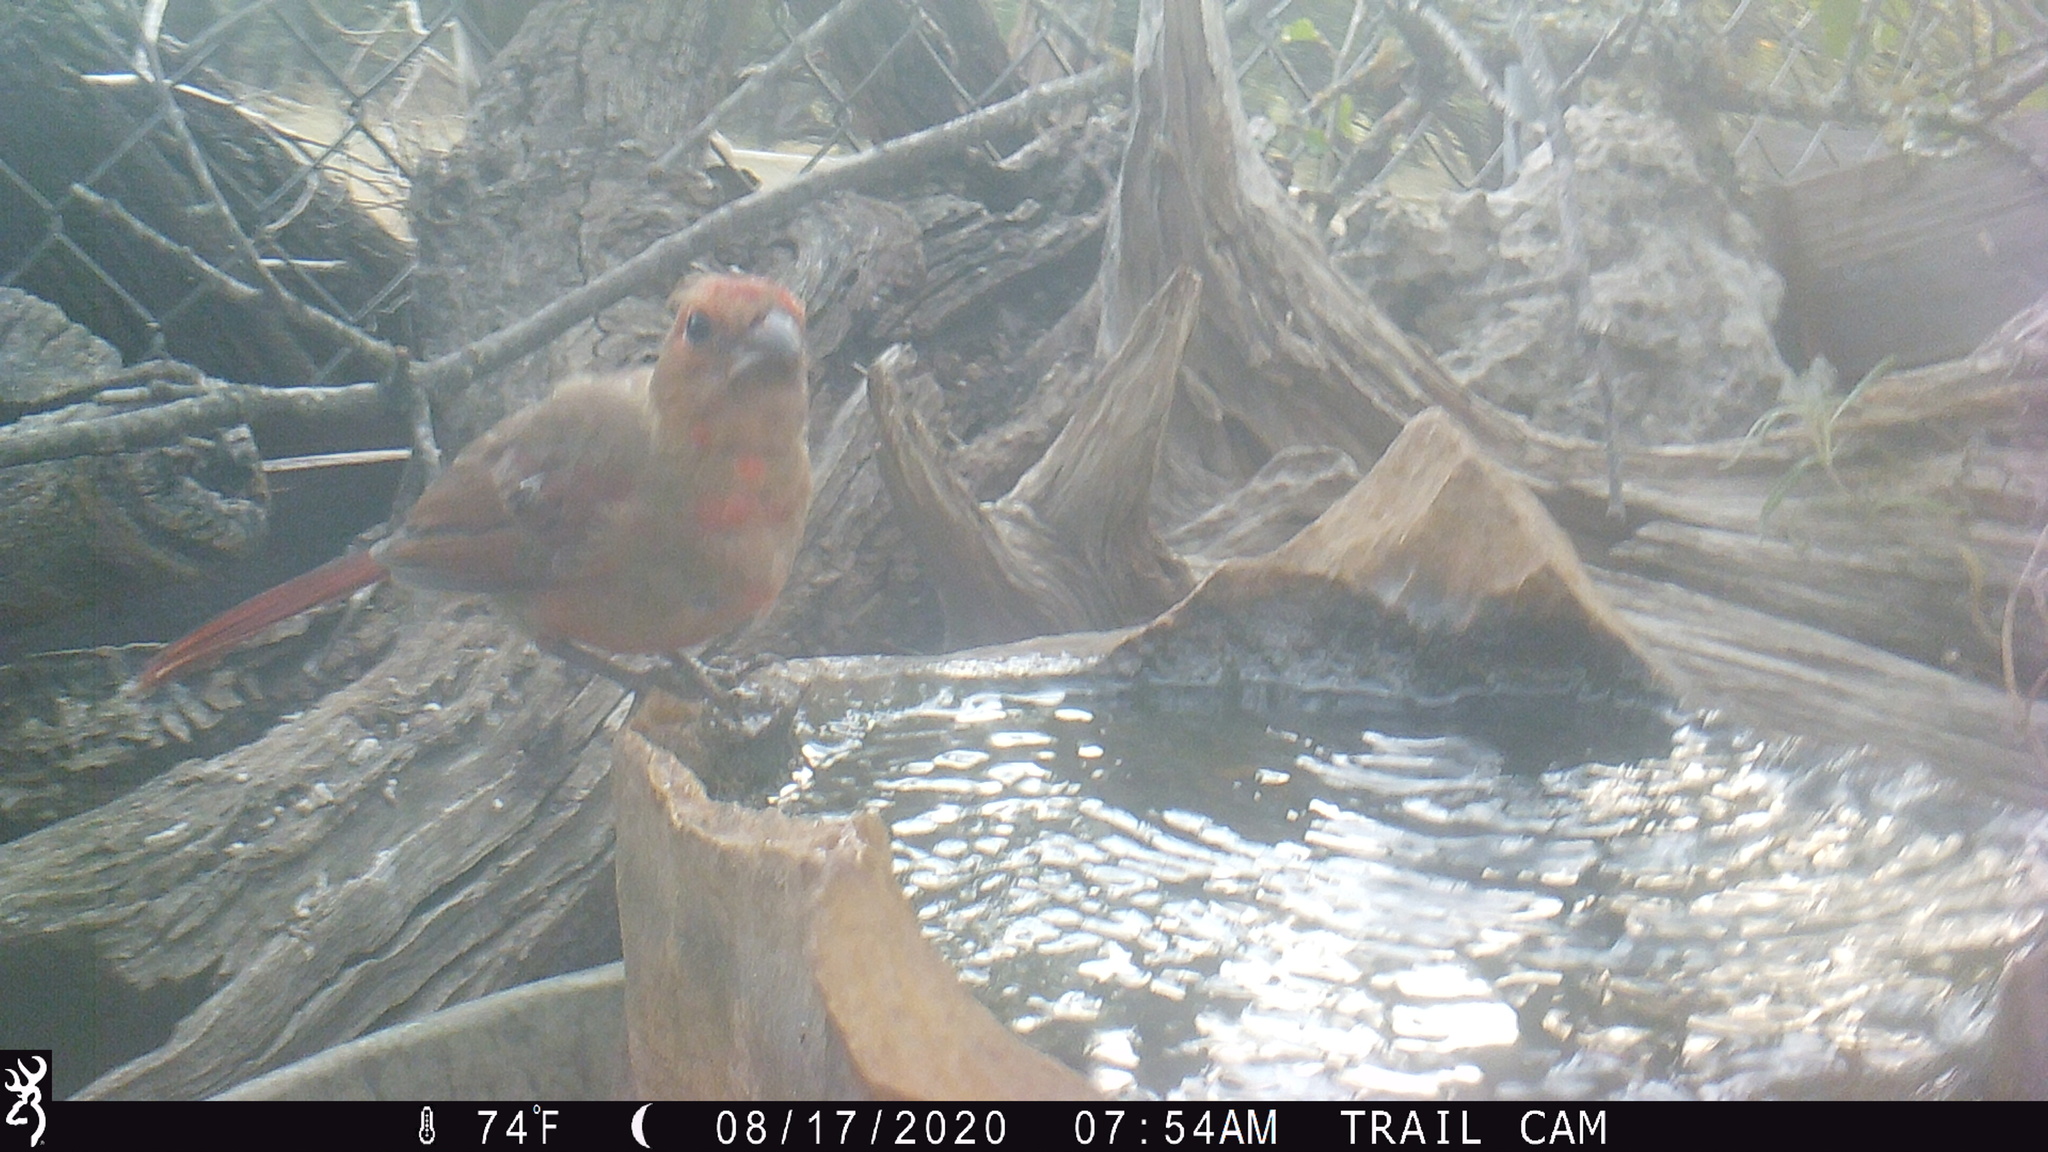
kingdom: Animalia
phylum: Chordata
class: Aves
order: Passeriformes
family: Cardinalidae
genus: Cardinalis
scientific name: Cardinalis cardinalis
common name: Northern cardinal
